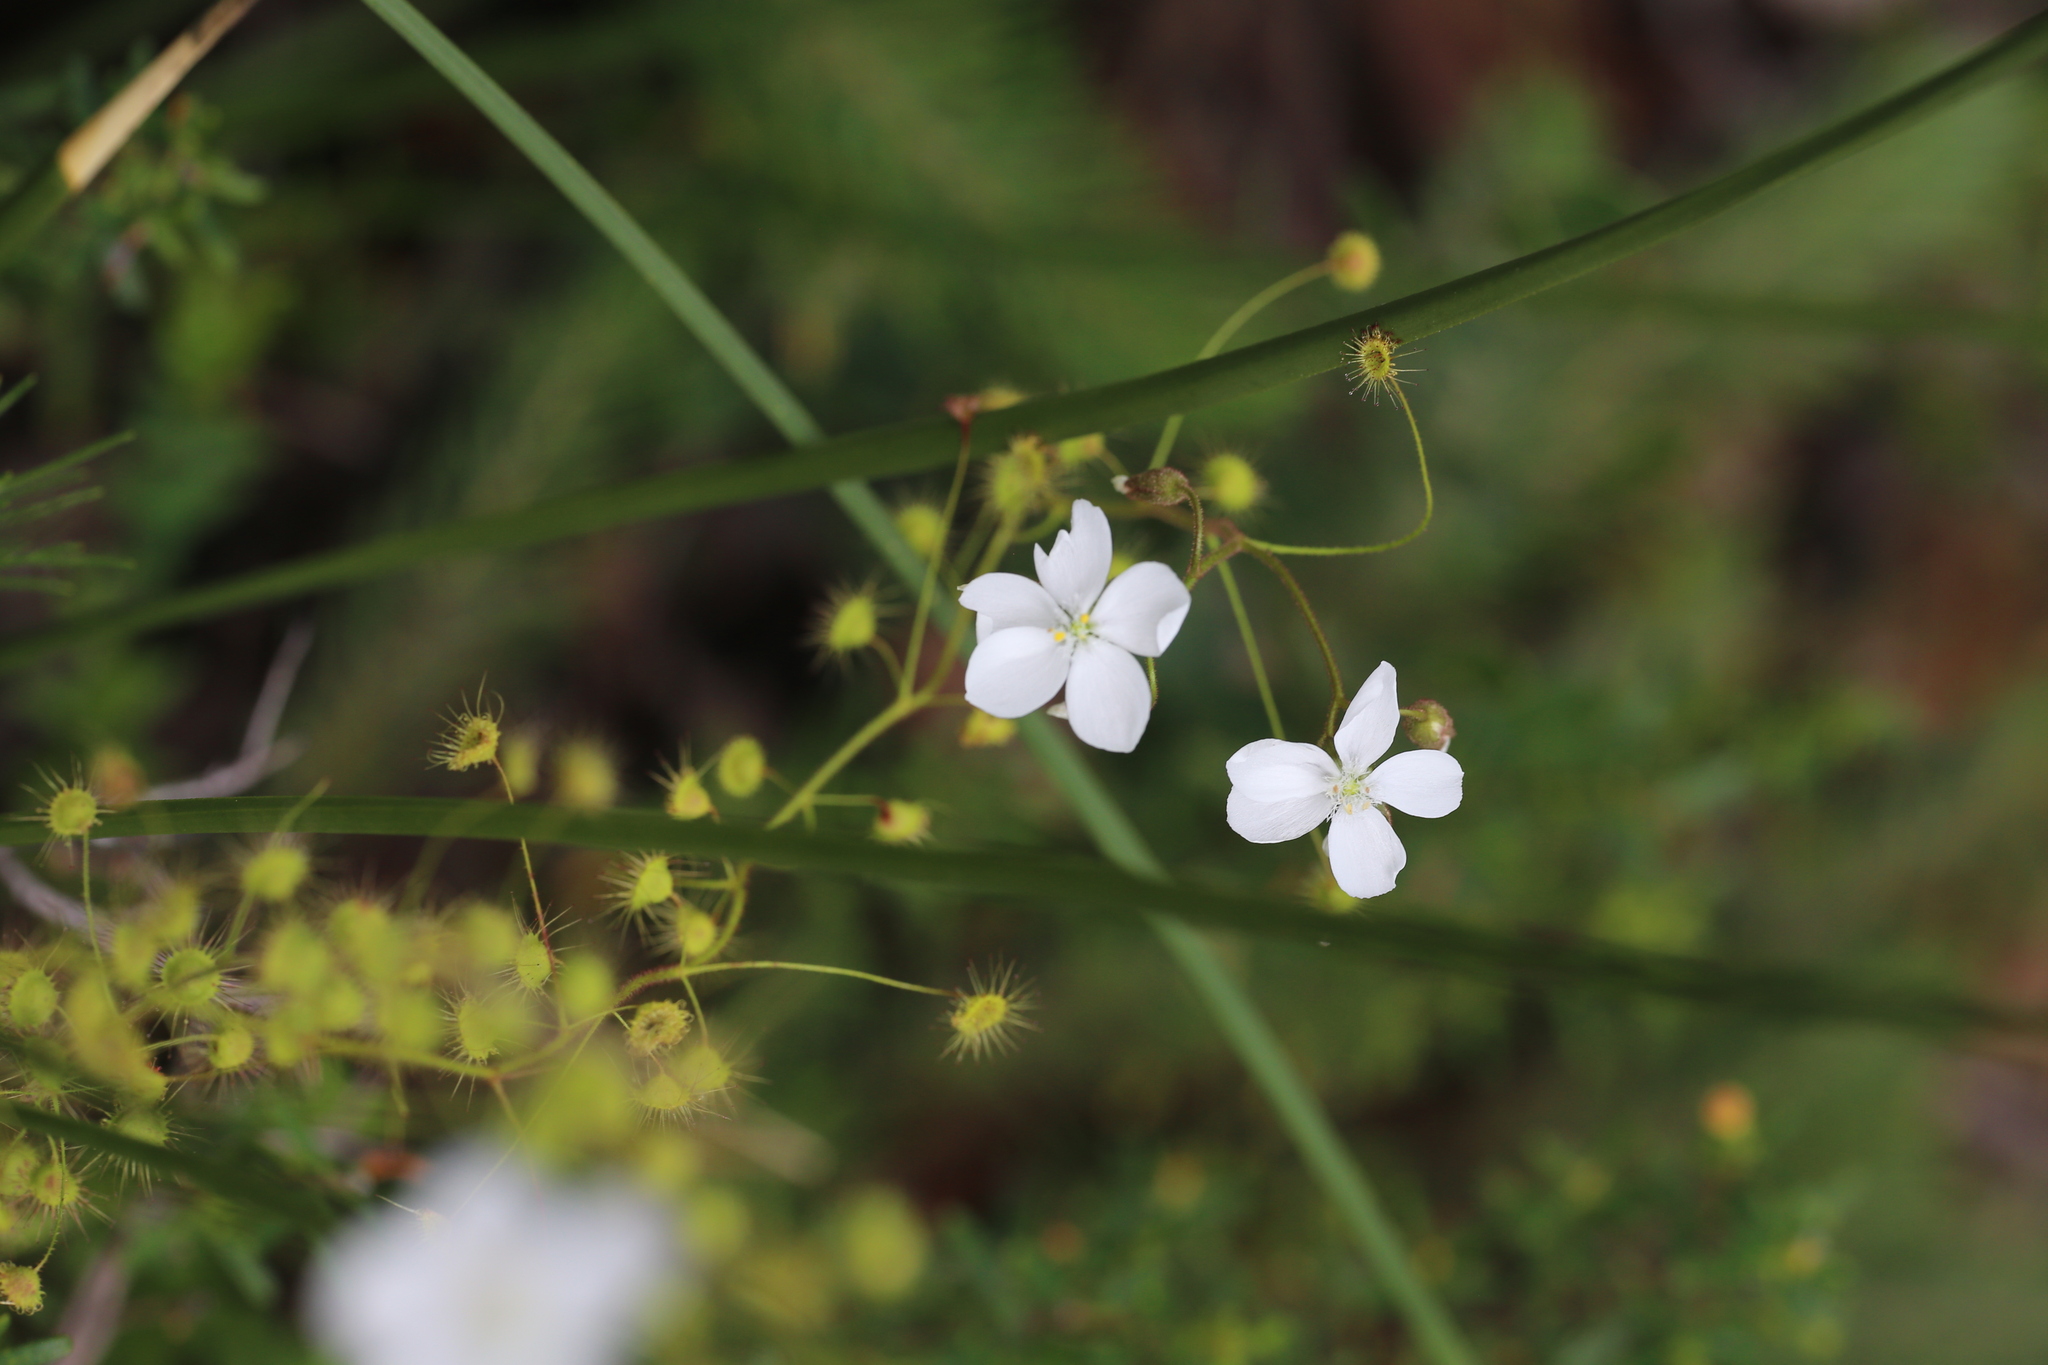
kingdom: Plantae
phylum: Tracheophyta
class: Magnoliopsida
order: Caryophyllales
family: Droseraceae
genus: Drosera
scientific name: Drosera macrantha
